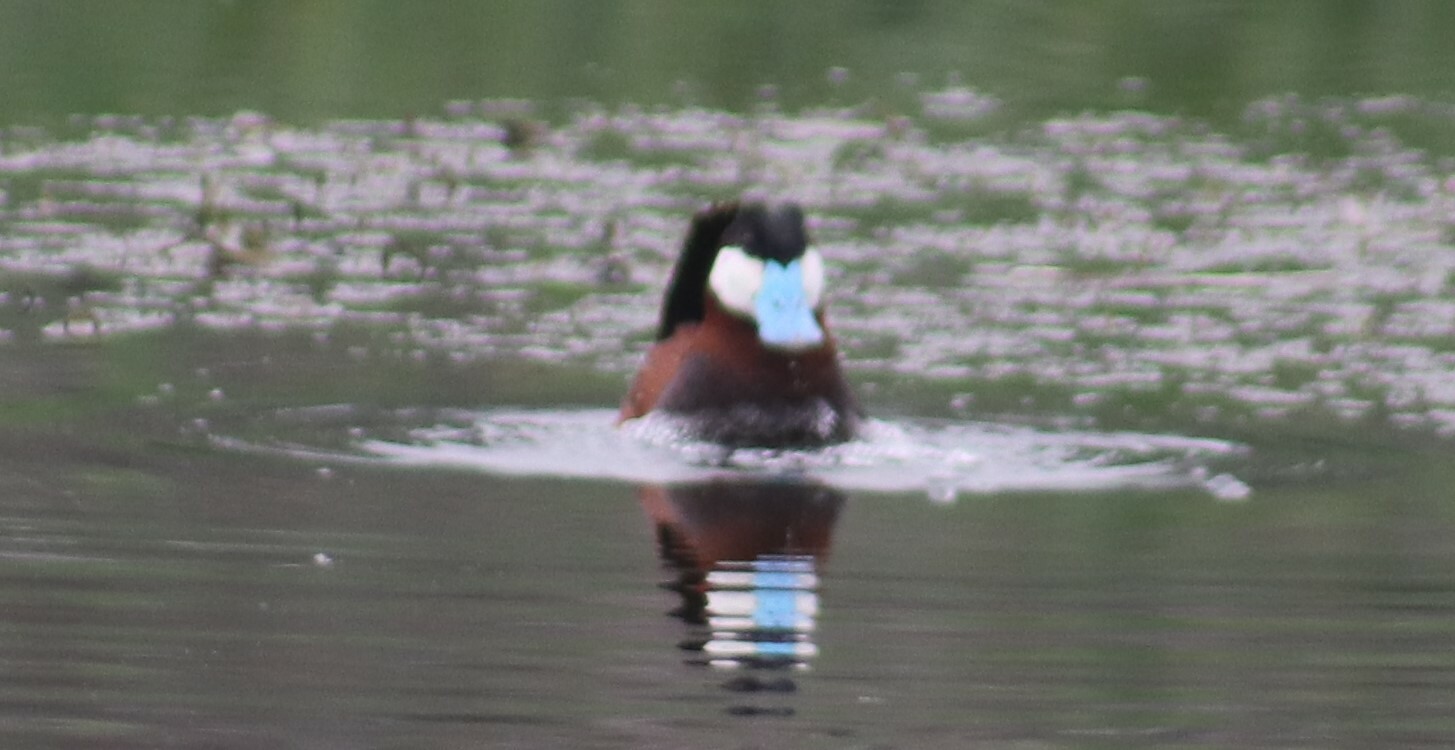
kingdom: Animalia
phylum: Chordata
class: Aves
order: Anseriformes
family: Anatidae
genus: Oxyura
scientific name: Oxyura jamaicensis
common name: Ruddy duck
